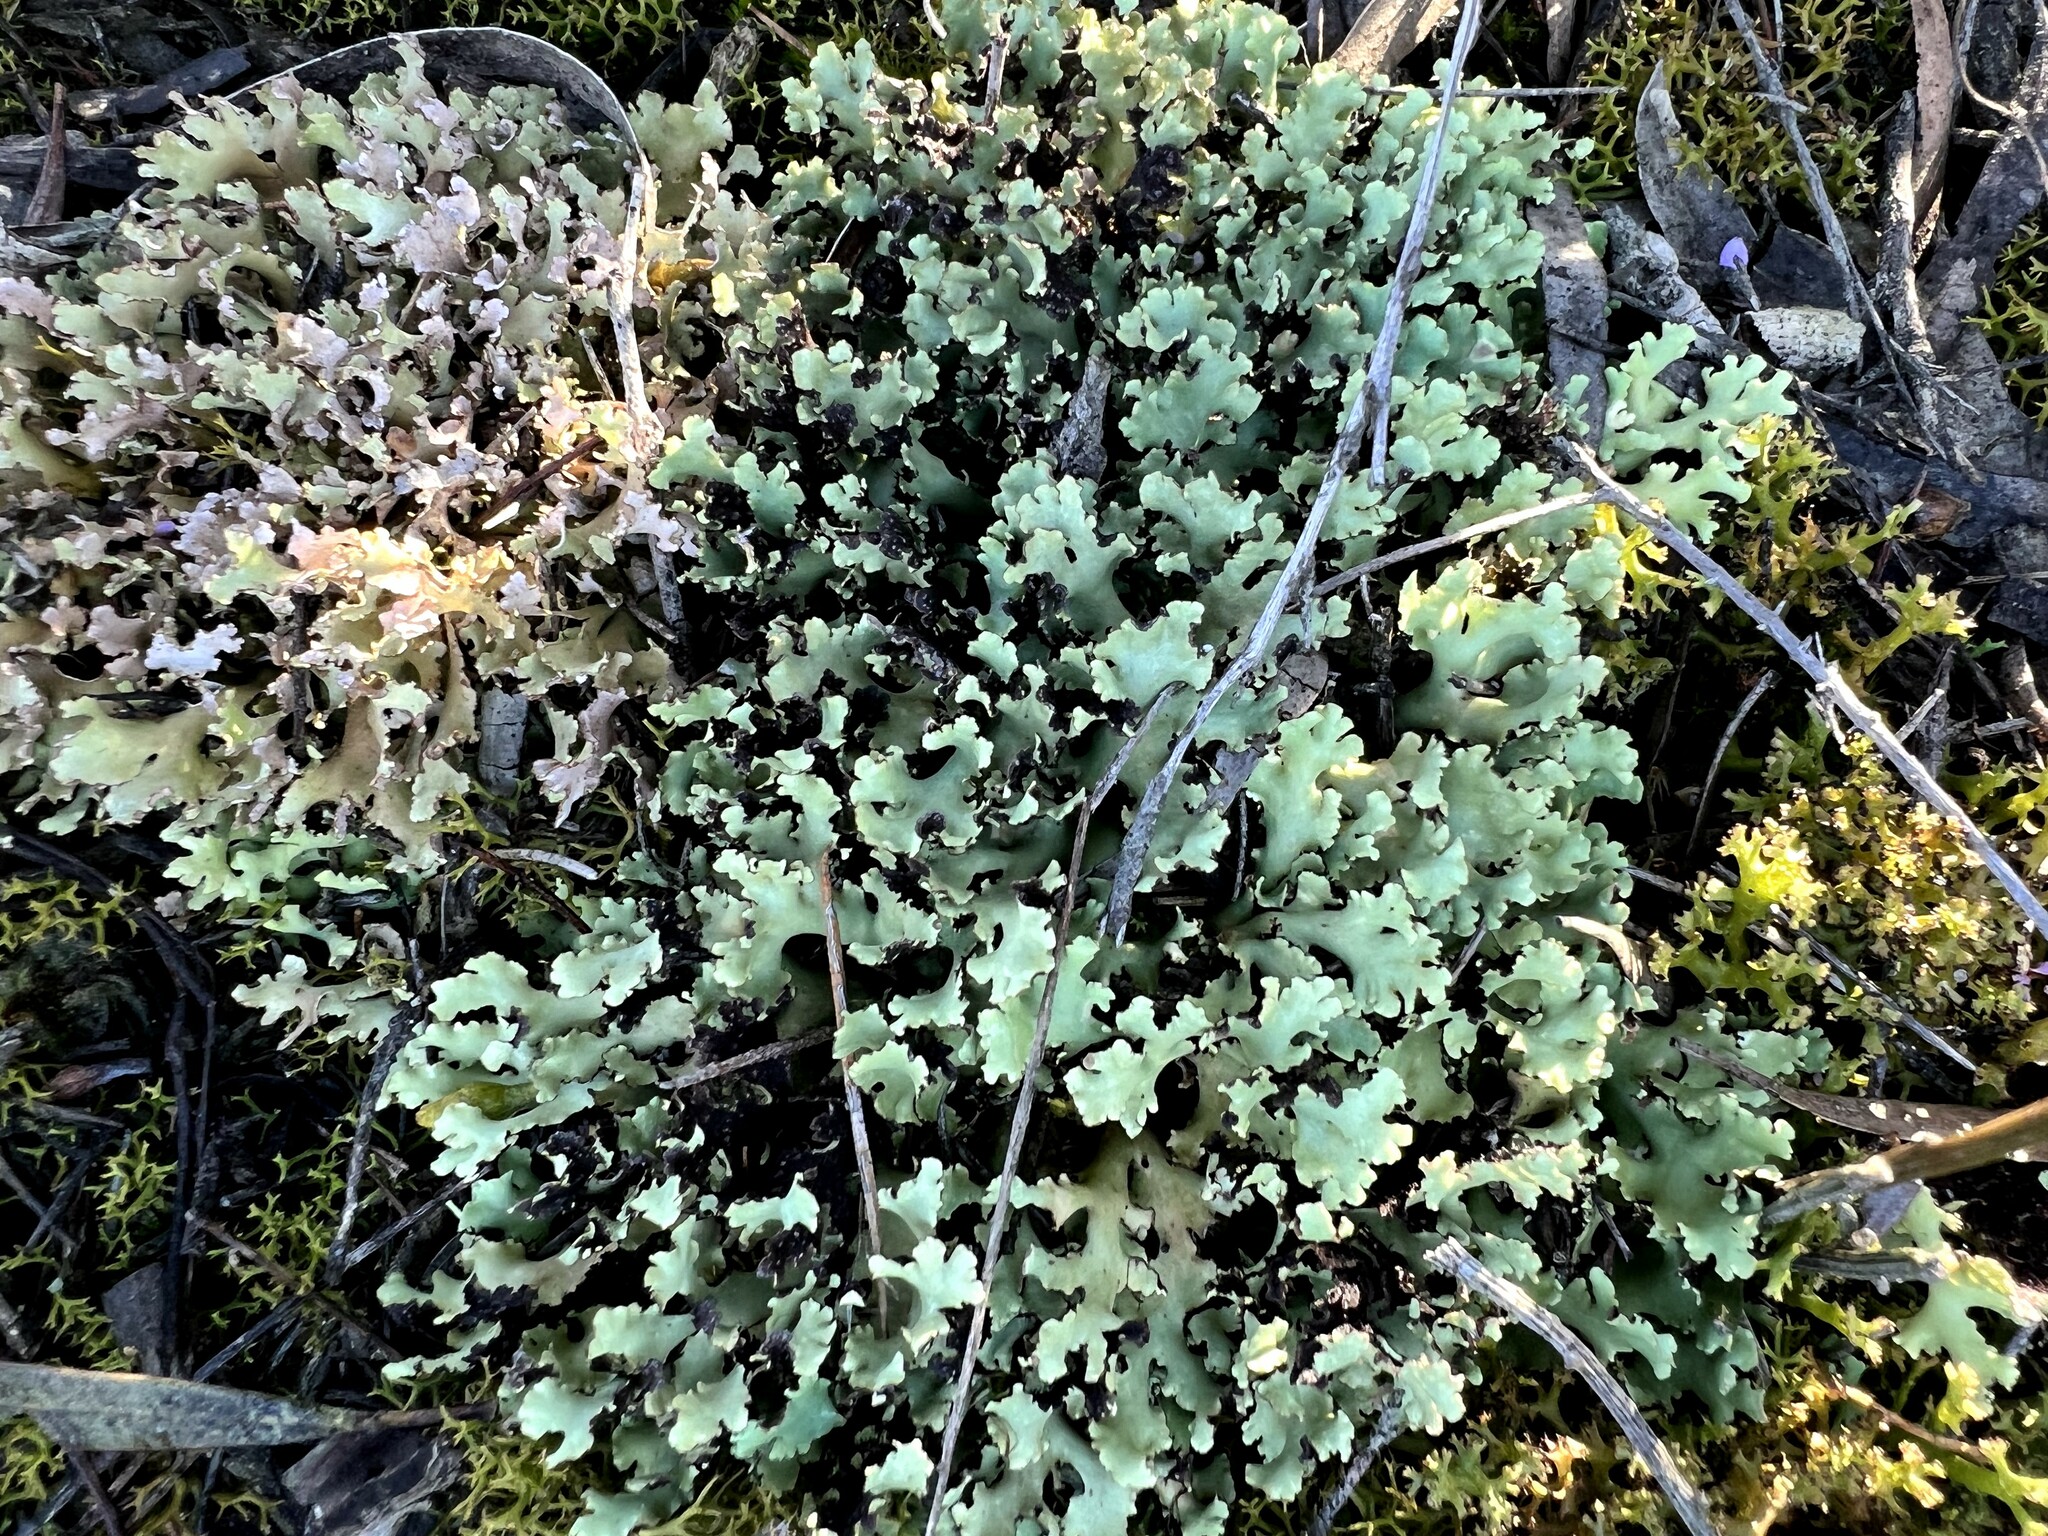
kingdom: Fungi
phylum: Ascomycota
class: Lecanoromycetes
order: Lecanorales
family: Cladoniaceae
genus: Cladia
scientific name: Cladia muelleri
